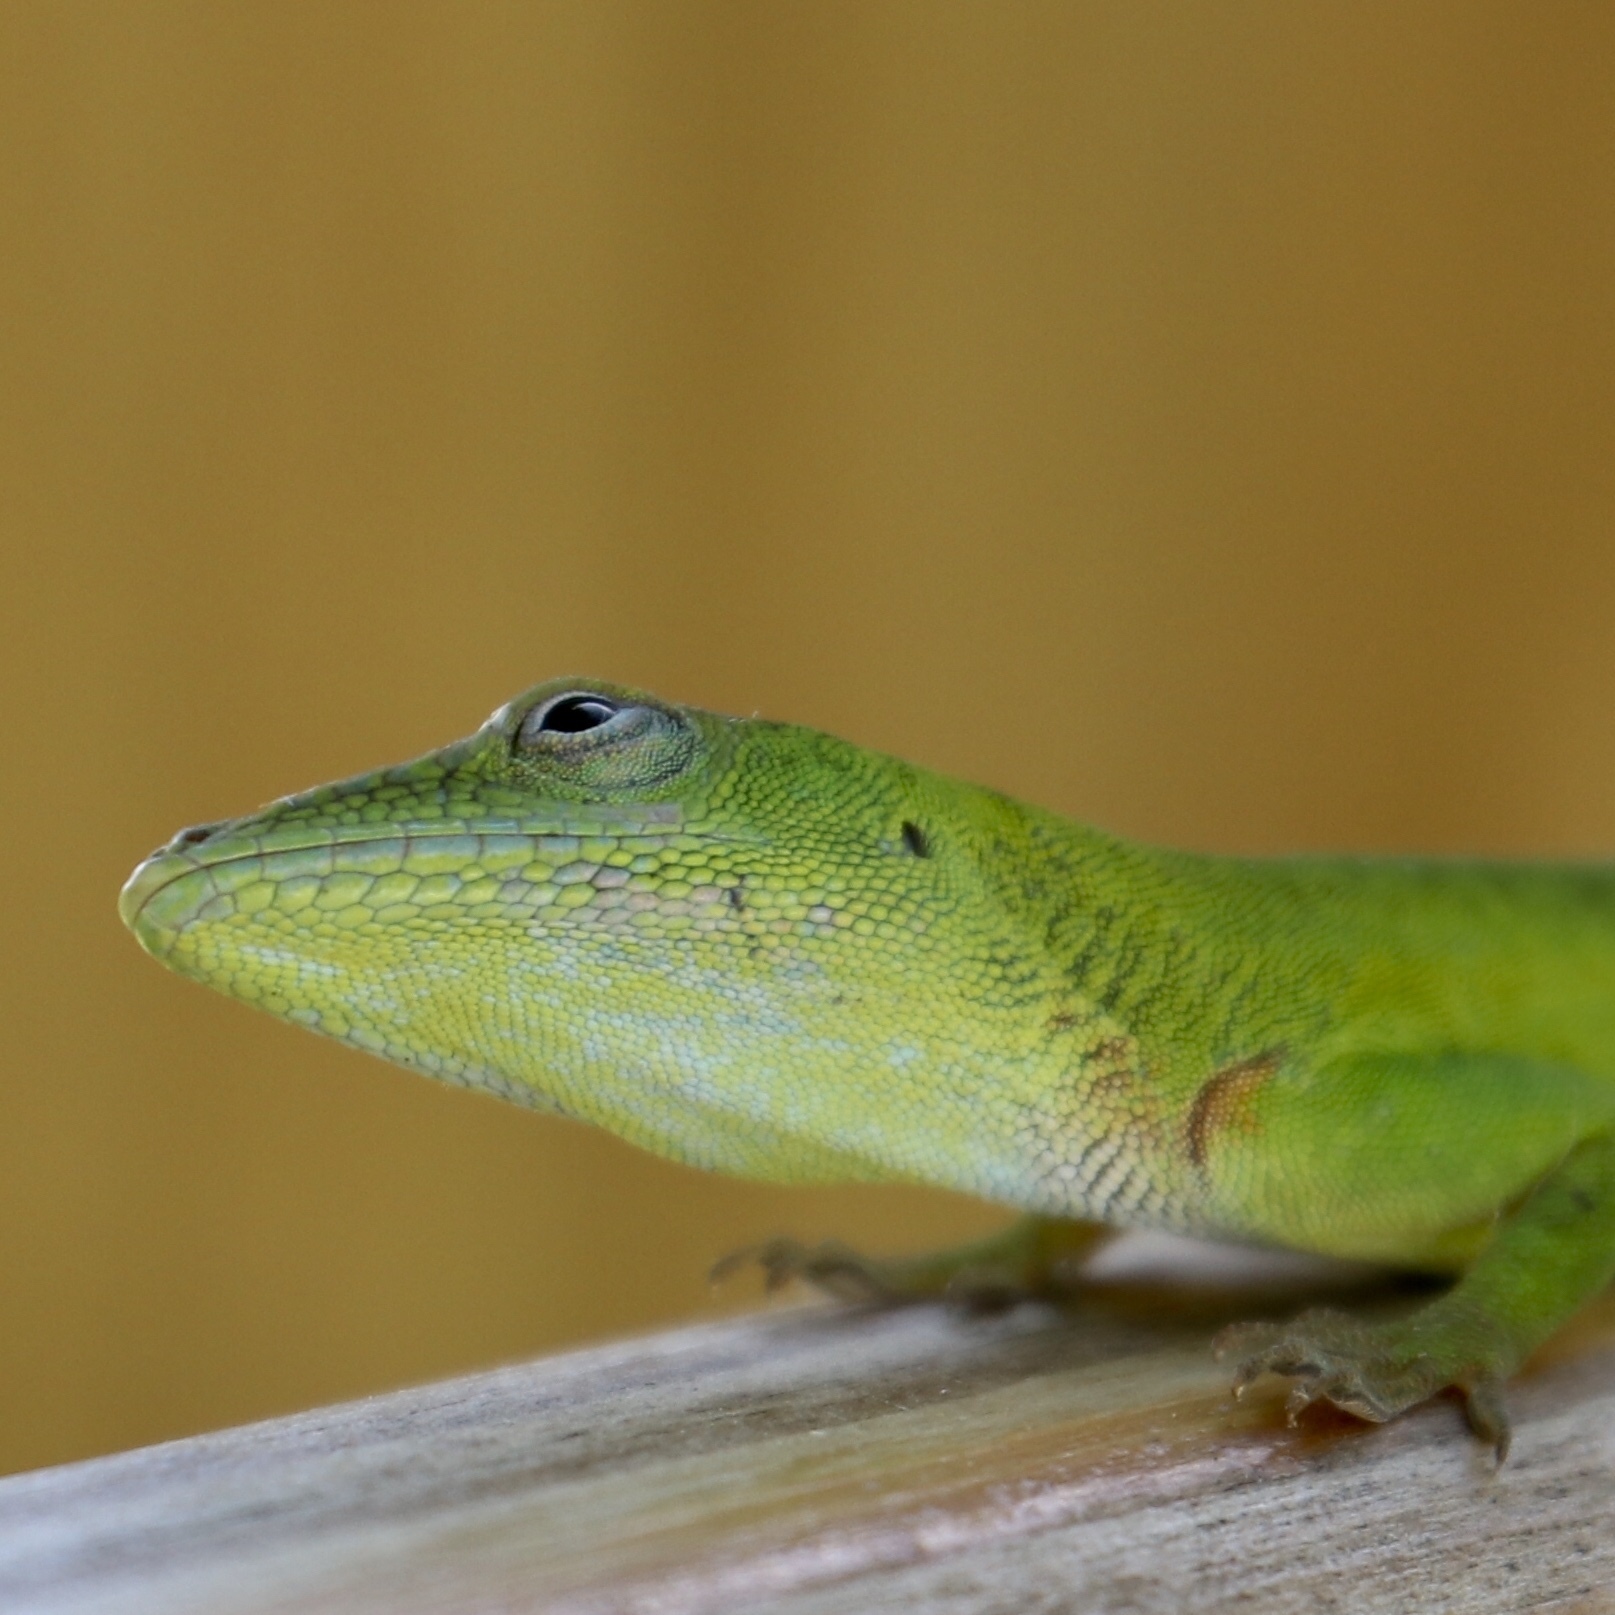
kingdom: Animalia
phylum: Chordata
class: Squamata
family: Dactyloidae
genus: Anolis
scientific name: Anolis callainus
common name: Dominican green anole
